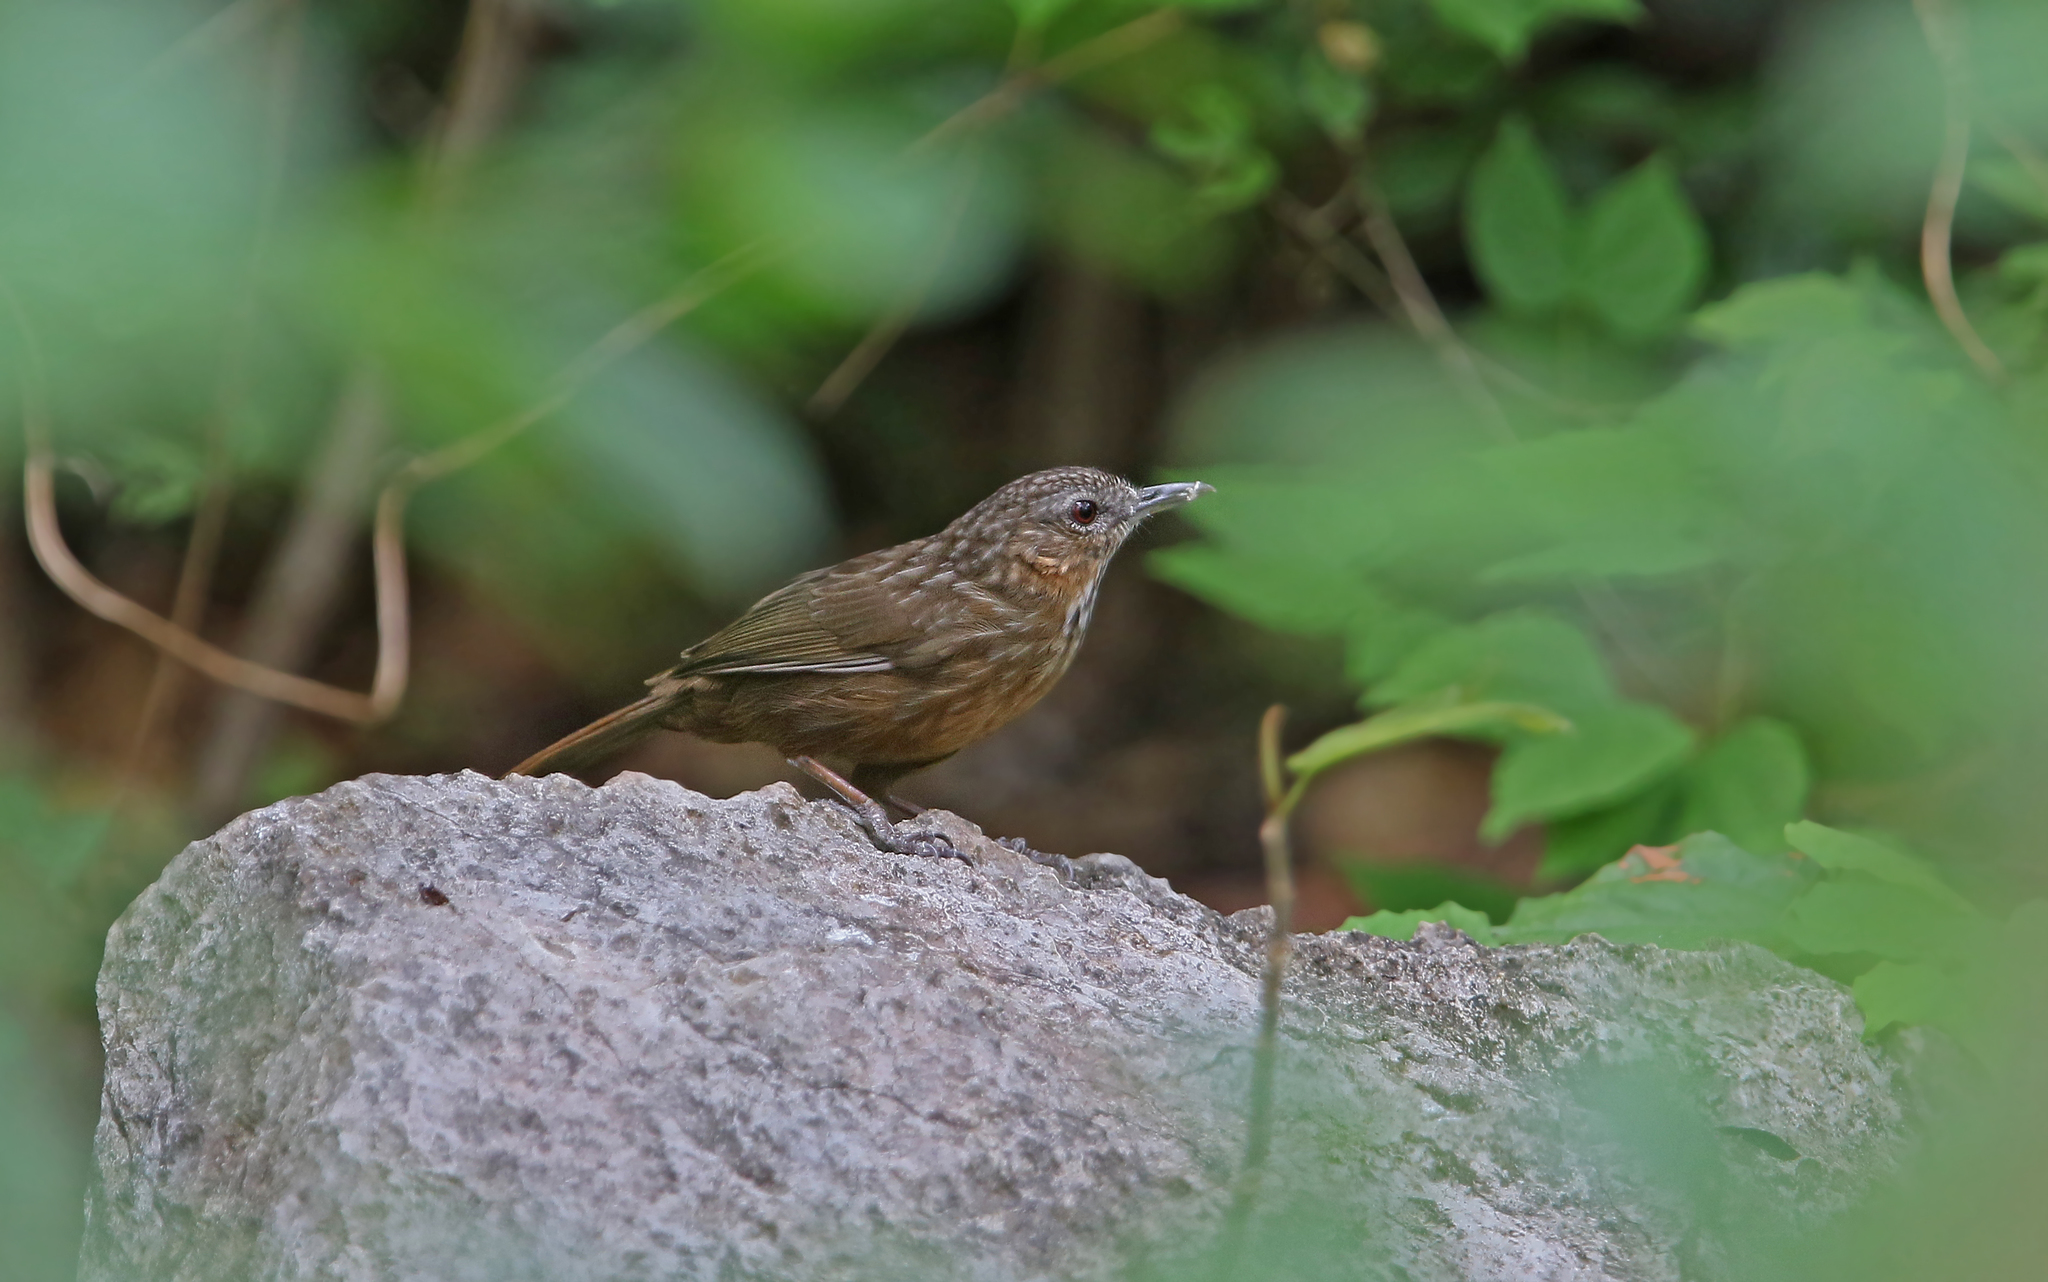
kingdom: Animalia
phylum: Chordata
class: Aves
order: Passeriformes
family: Pellorneidae
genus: Napothera
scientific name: Napothera crispifrons
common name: Limestone wren-babbler
